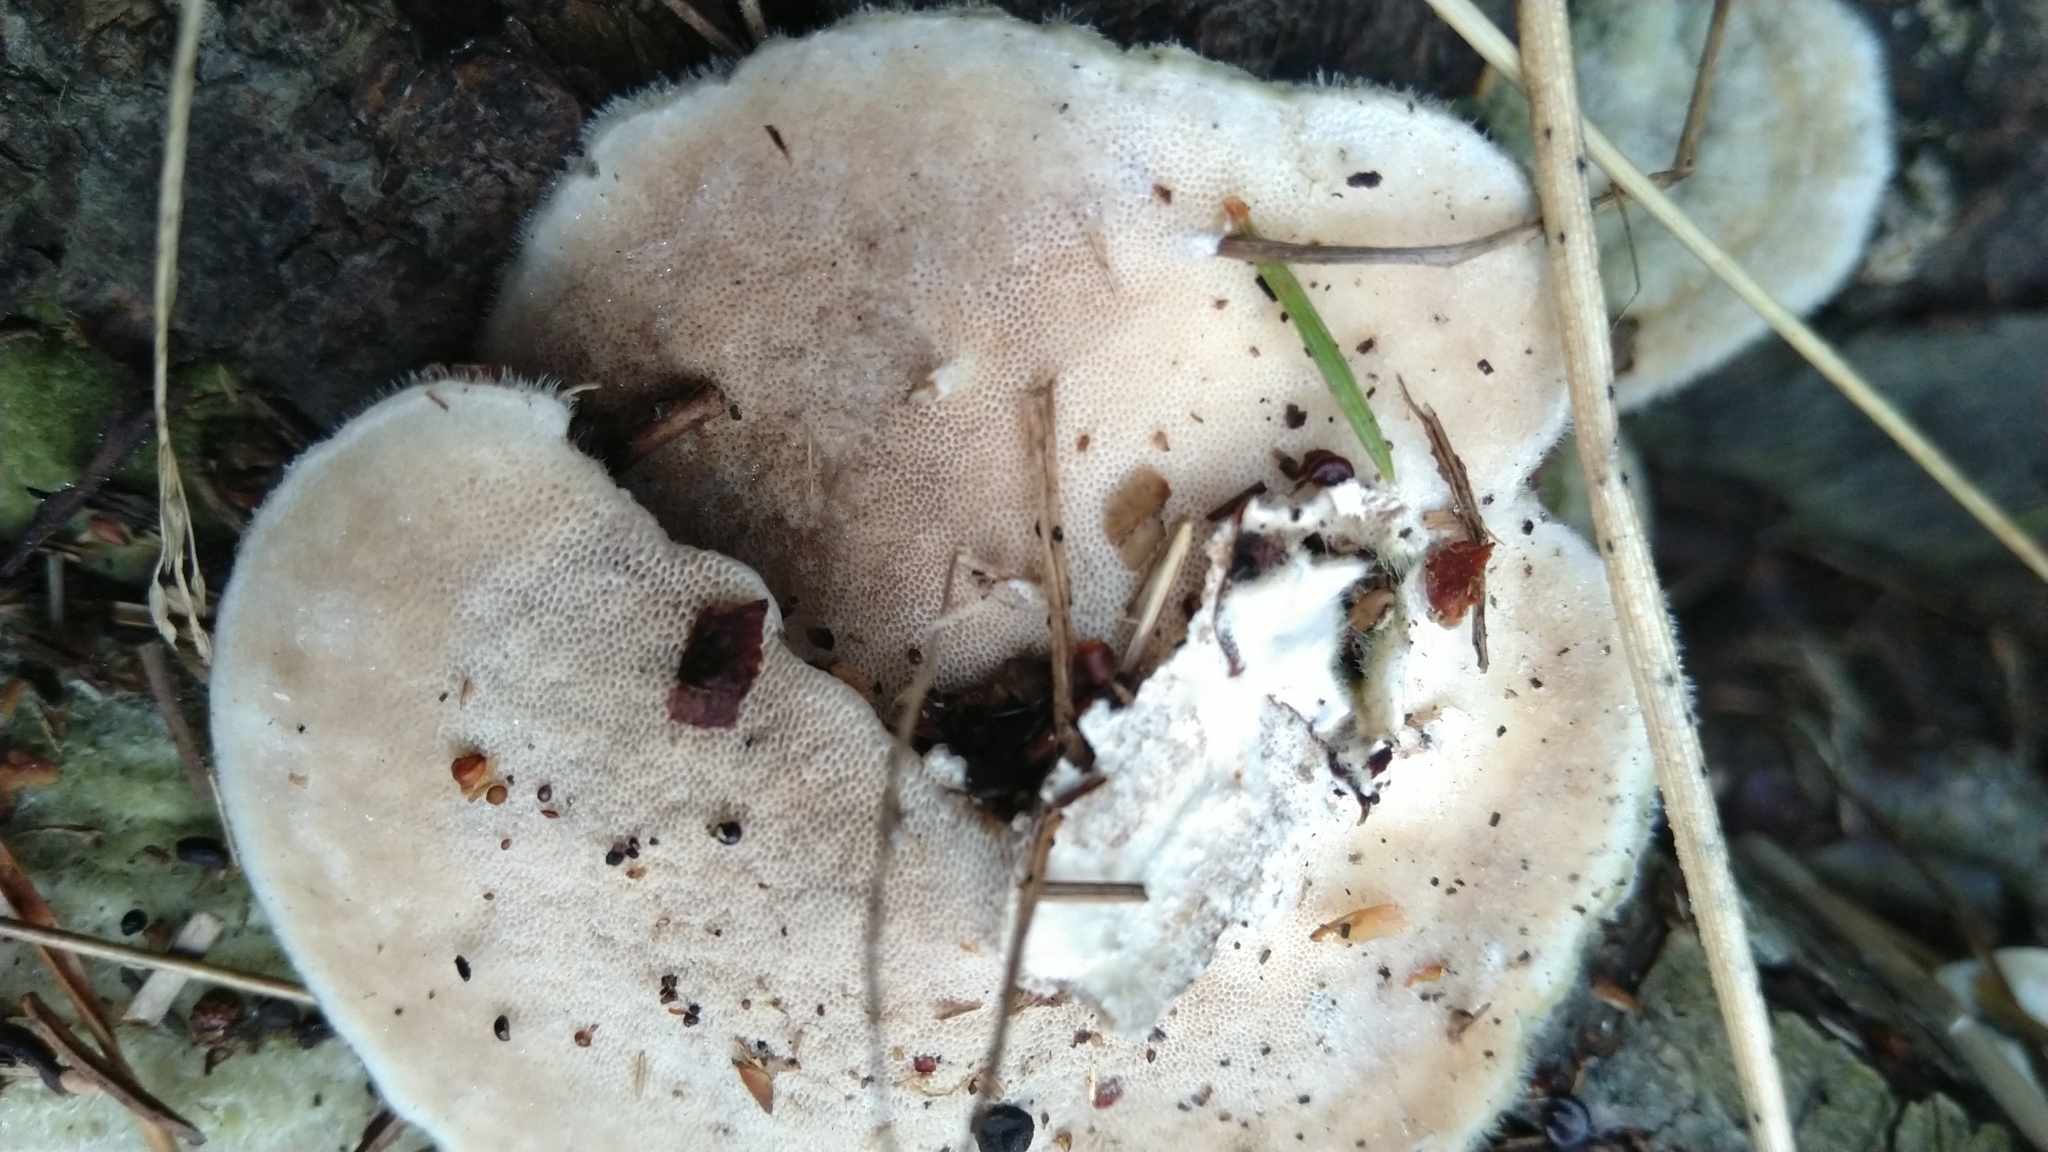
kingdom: Fungi
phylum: Basidiomycota
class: Agaricomycetes
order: Polyporales
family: Polyporaceae
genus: Trametes
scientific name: Trametes hirsuta
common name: Hairy bracket
